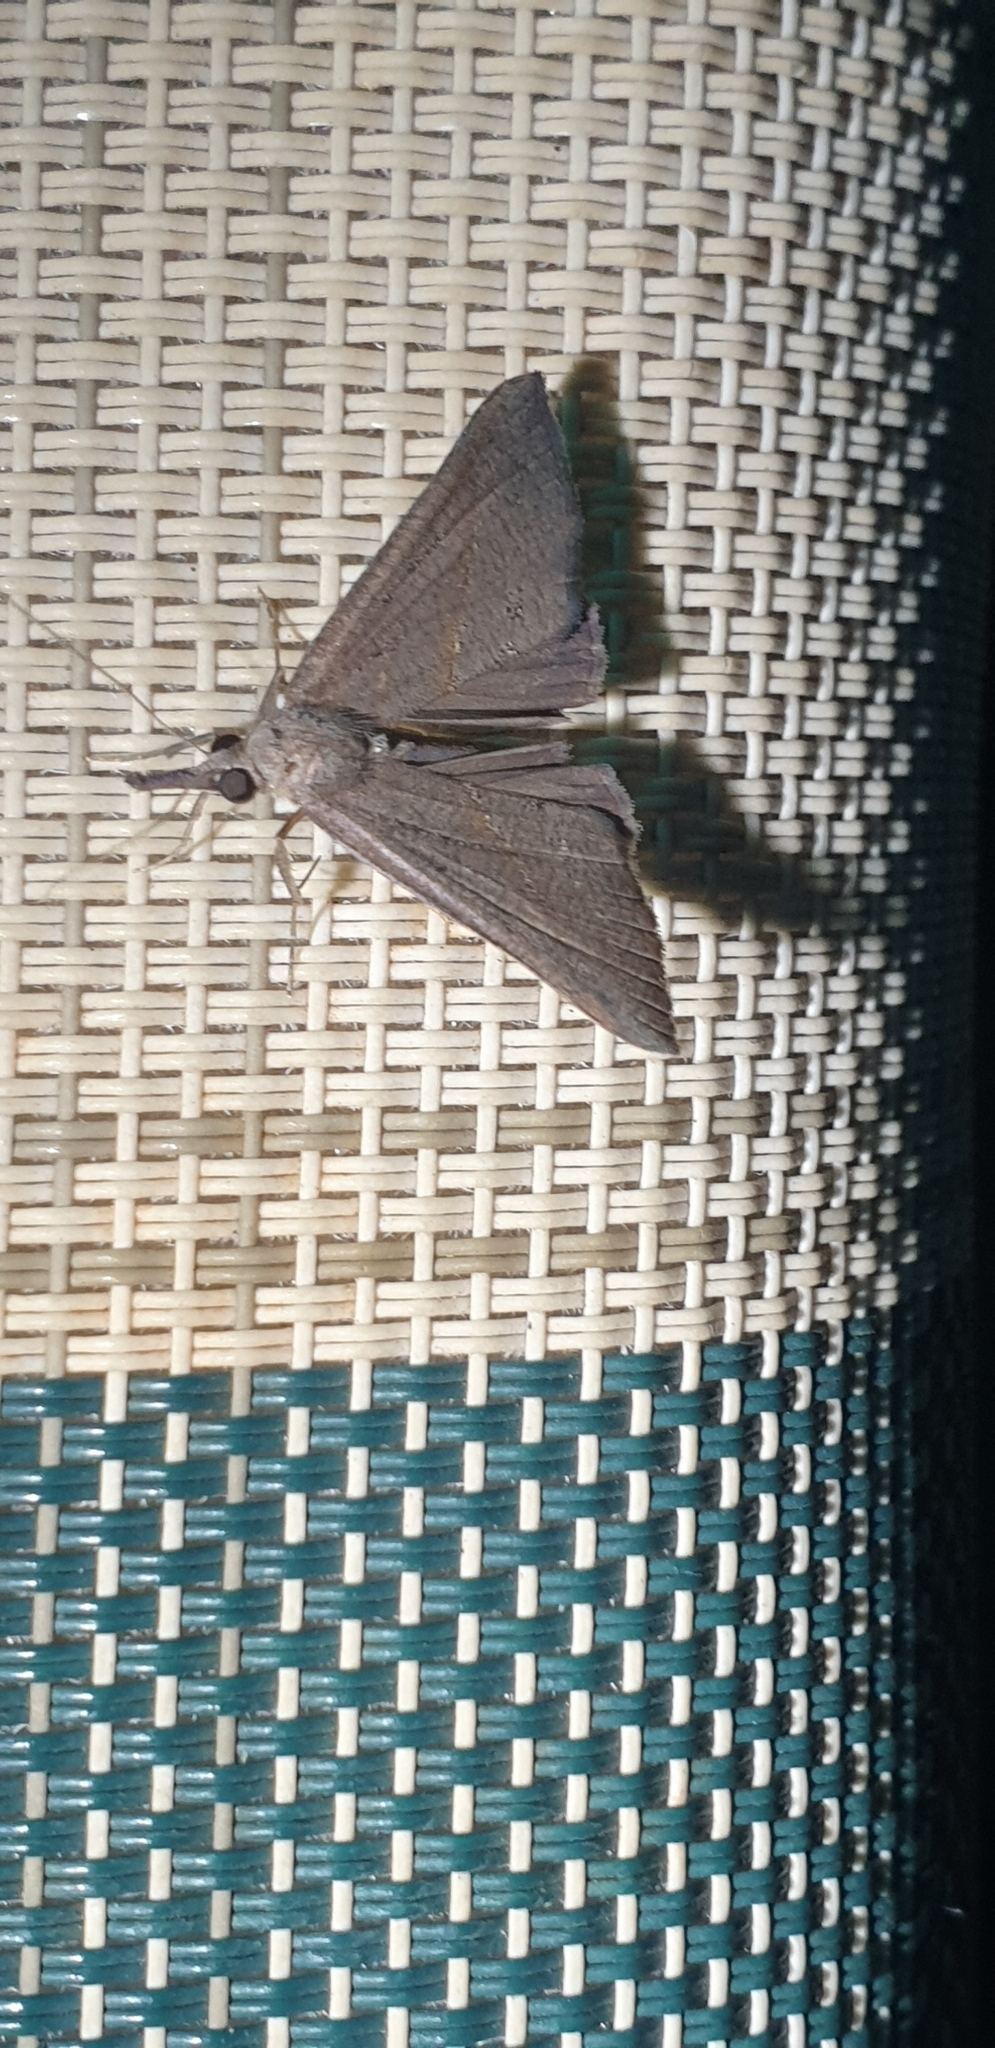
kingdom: Animalia
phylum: Arthropoda
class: Insecta
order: Lepidoptera
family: Erebidae
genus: Hypena
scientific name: Hypena lividalis
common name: Chevron snout
